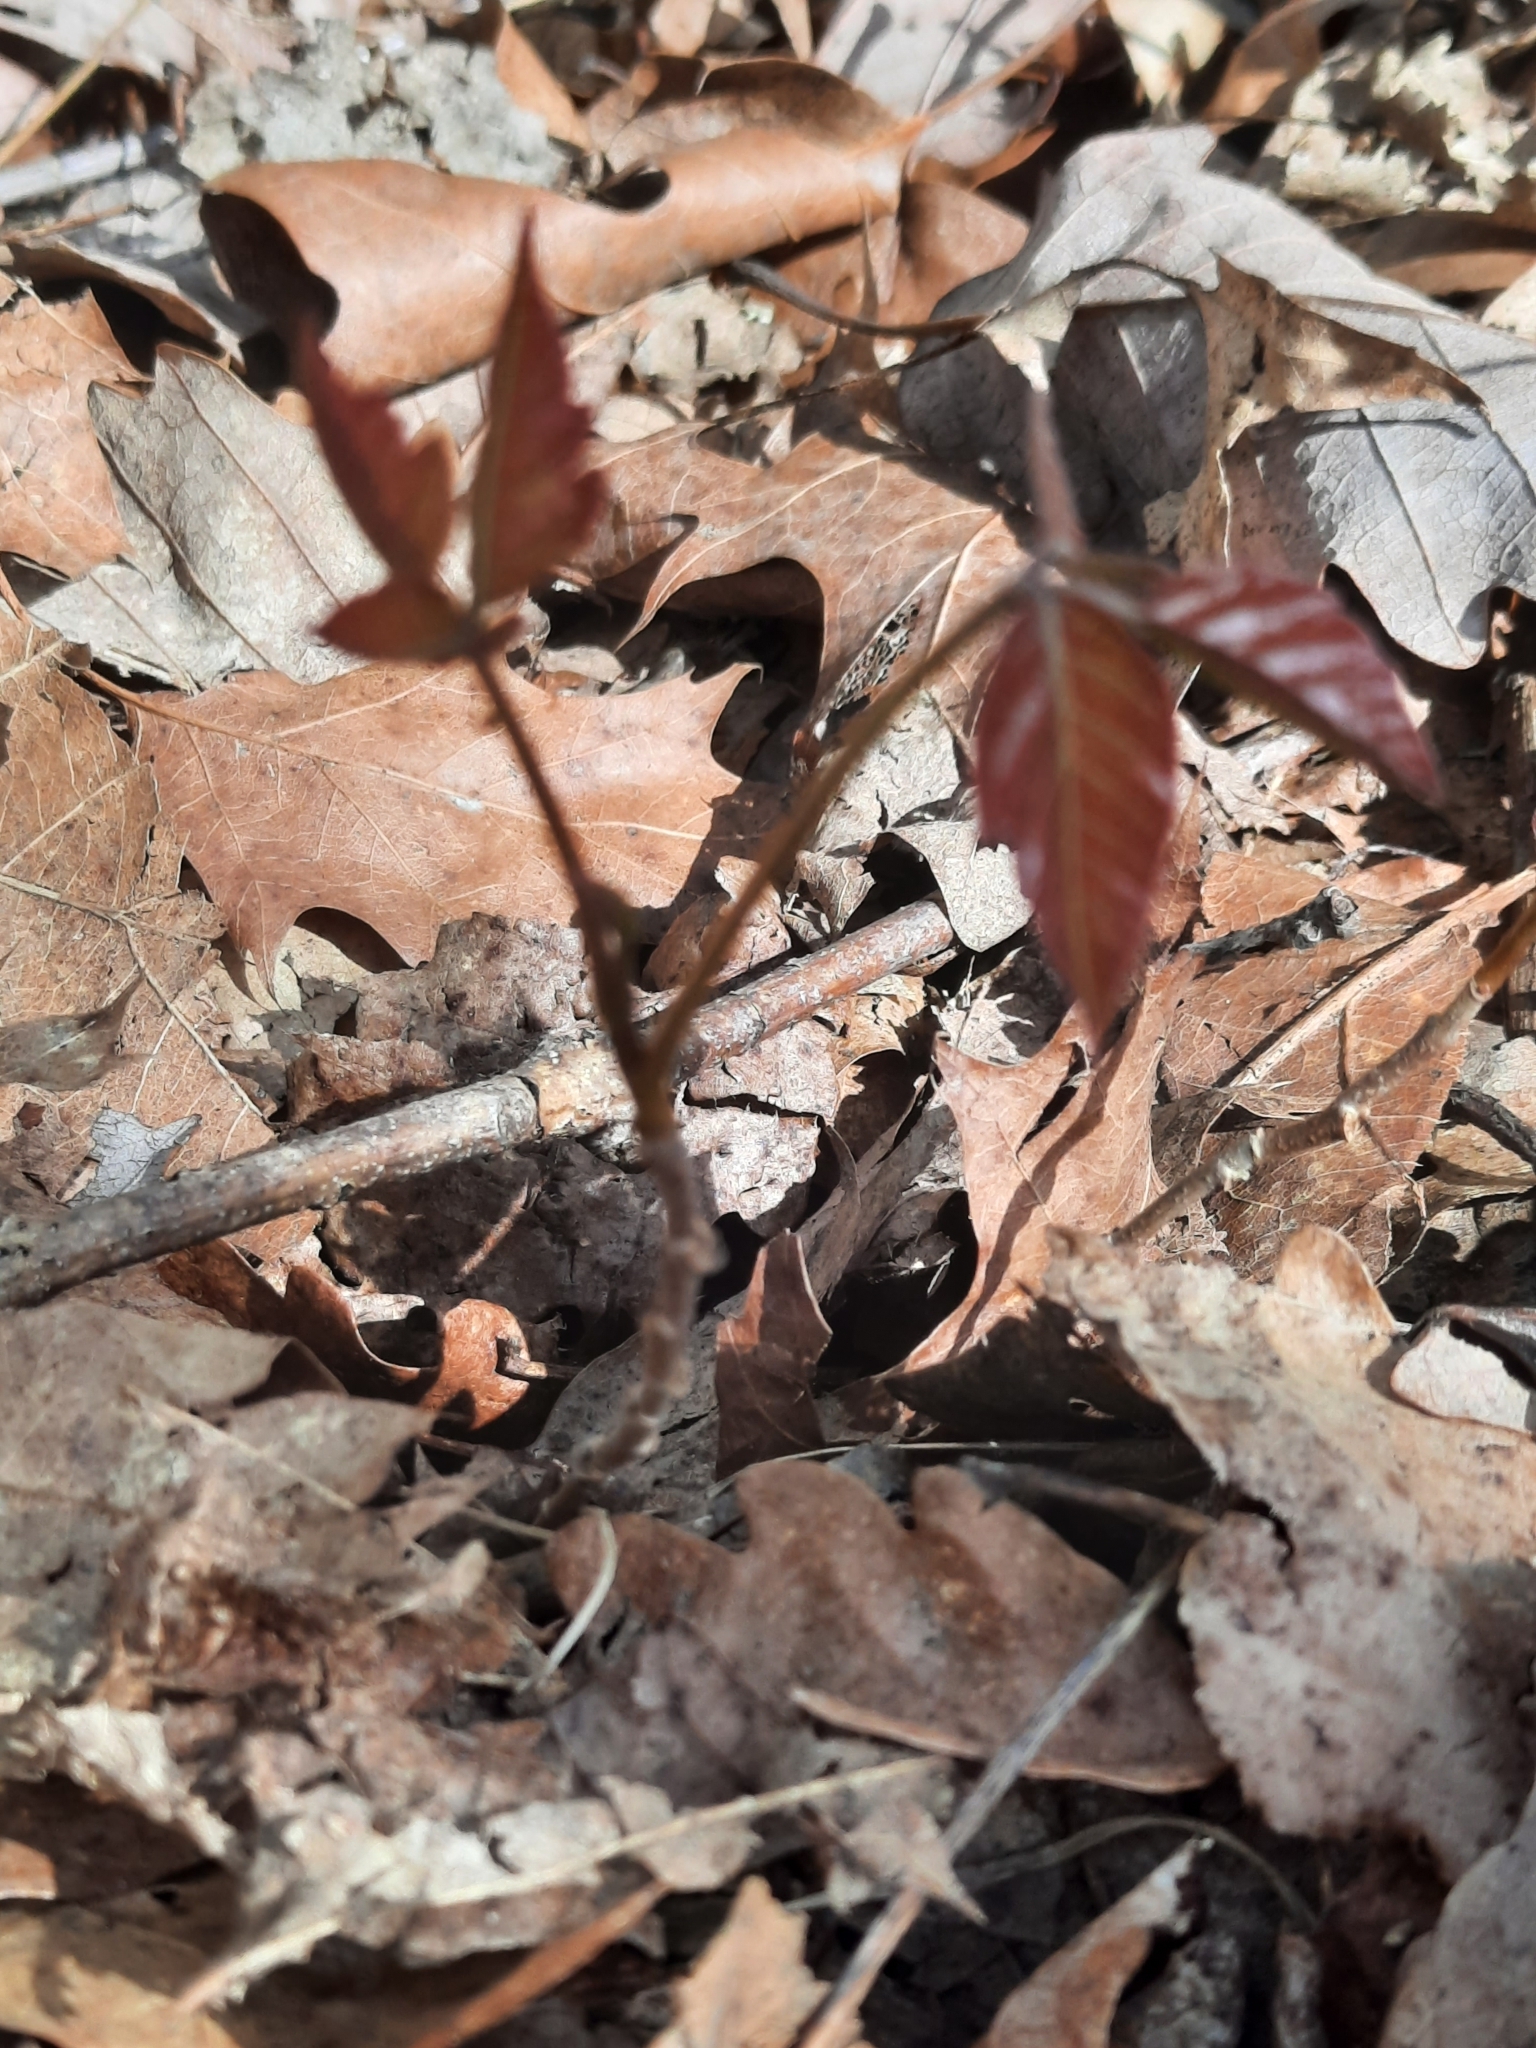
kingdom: Plantae
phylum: Tracheophyta
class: Magnoliopsida
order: Sapindales
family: Anacardiaceae
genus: Toxicodendron
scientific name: Toxicodendron radicans
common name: Poison ivy
